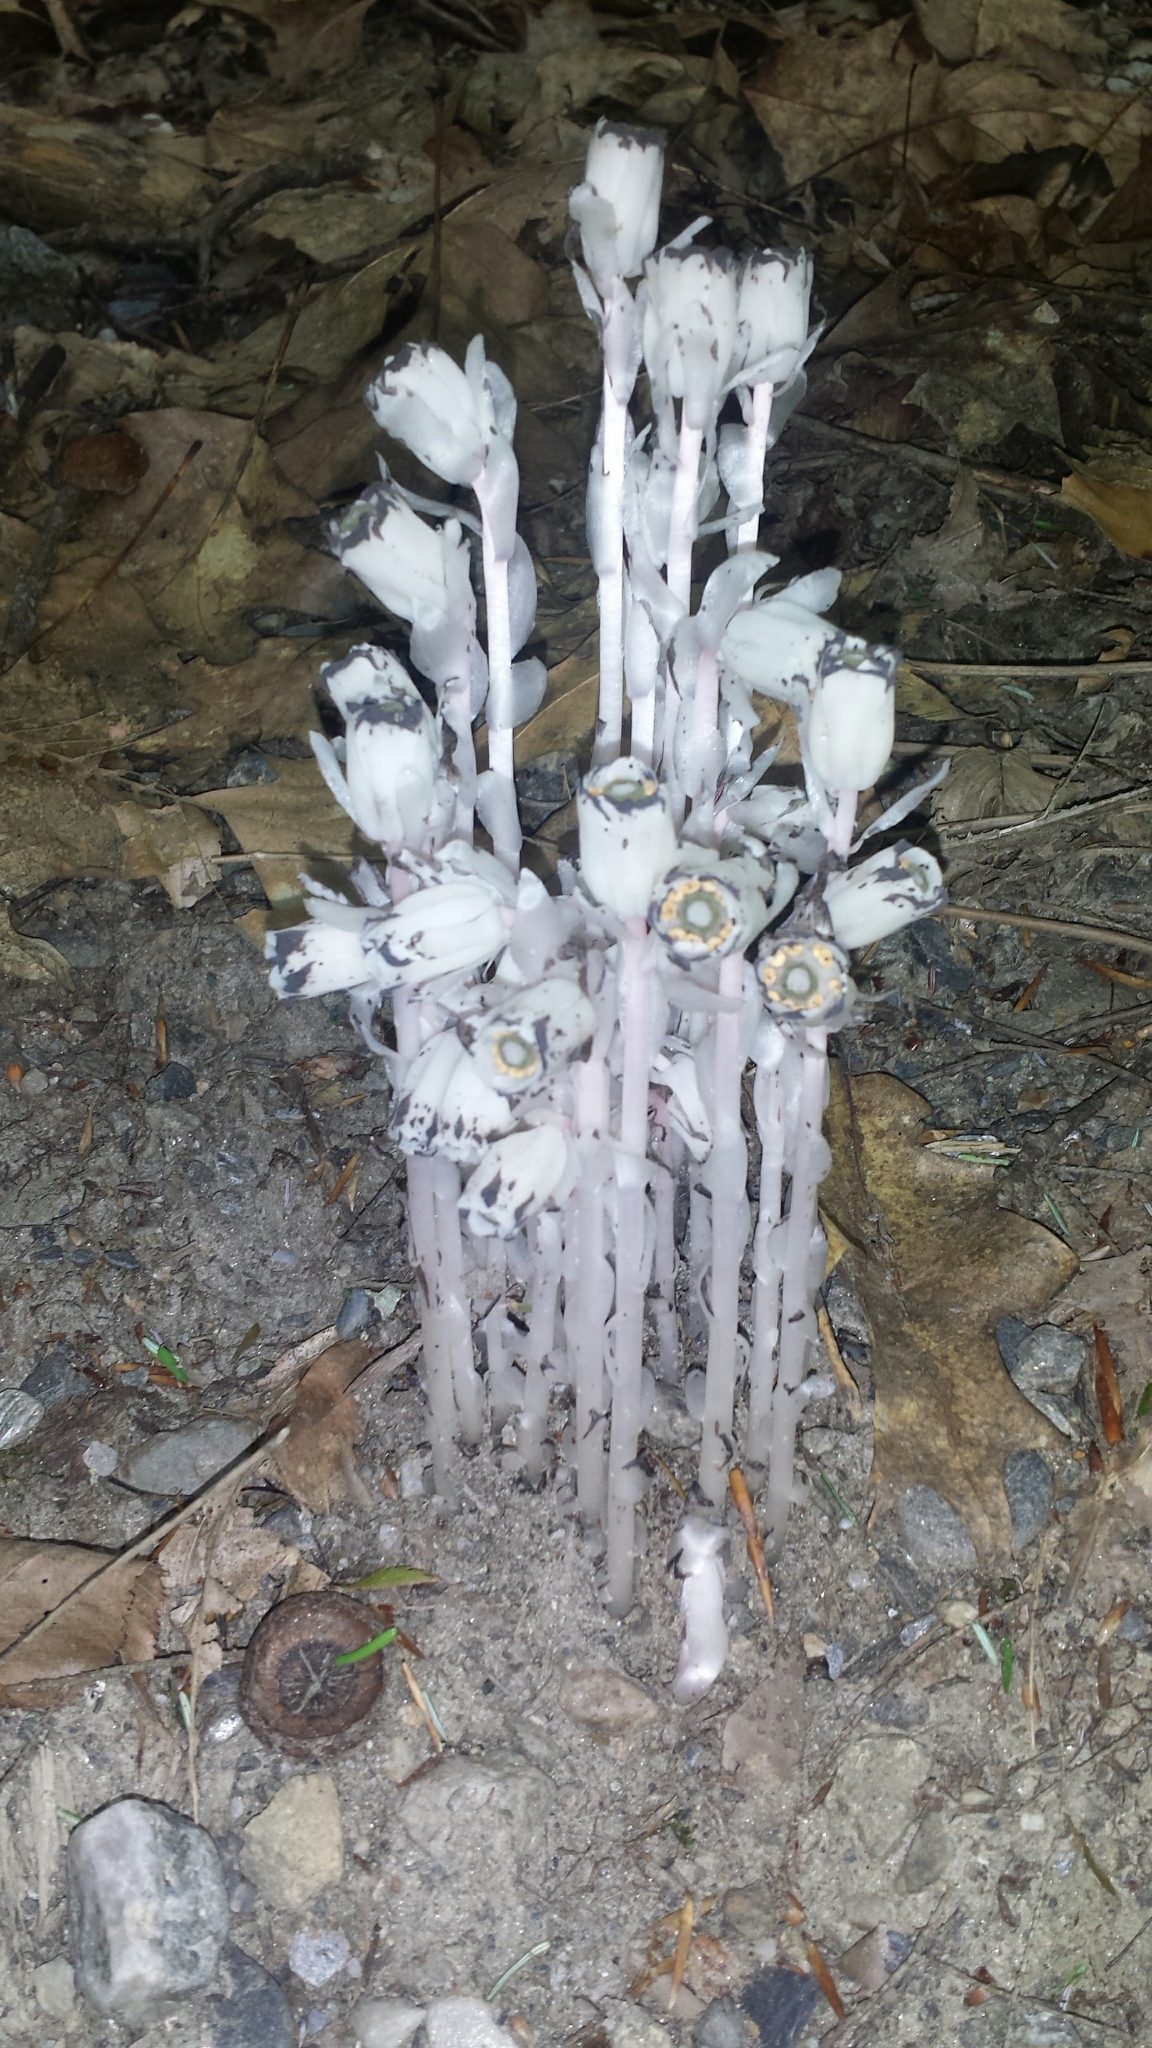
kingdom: Plantae
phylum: Tracheophyta
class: Magnoliopsida
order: Ericales
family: Ericaceae
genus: Monotropa
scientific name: Monotropa uniflora
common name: Convulsion root
